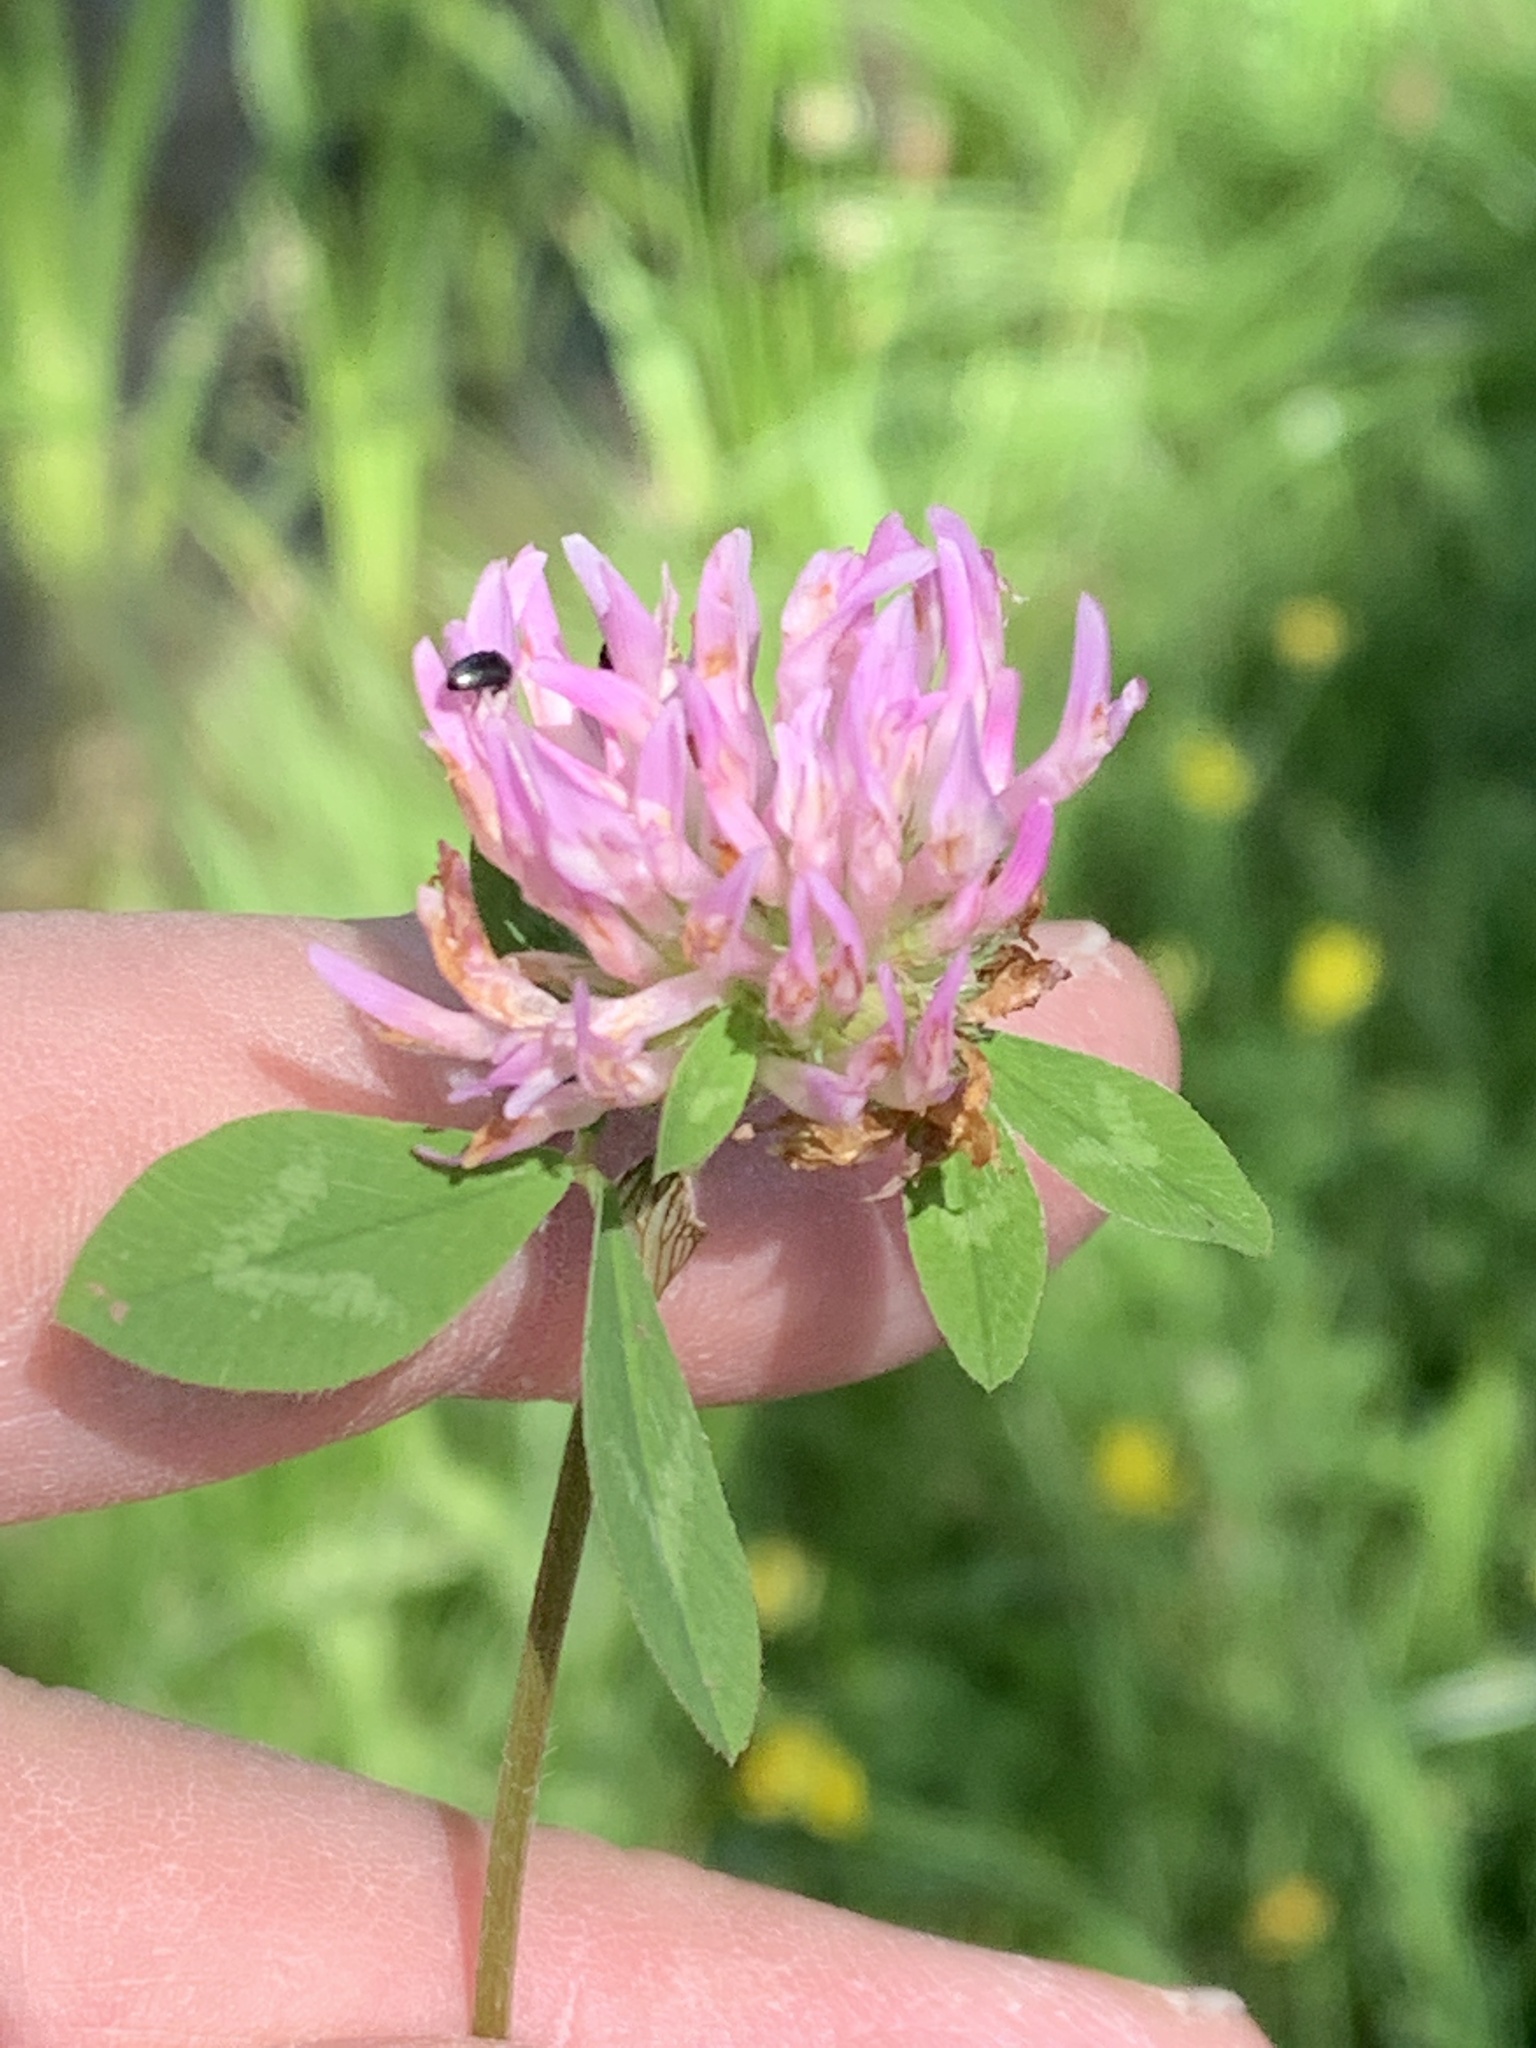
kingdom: Plantae
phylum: Tracheophyta
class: Magnoliopsida
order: Fabales
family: Fabaceae
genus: Trifolium
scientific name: Trifolium pratense
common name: Red clover
